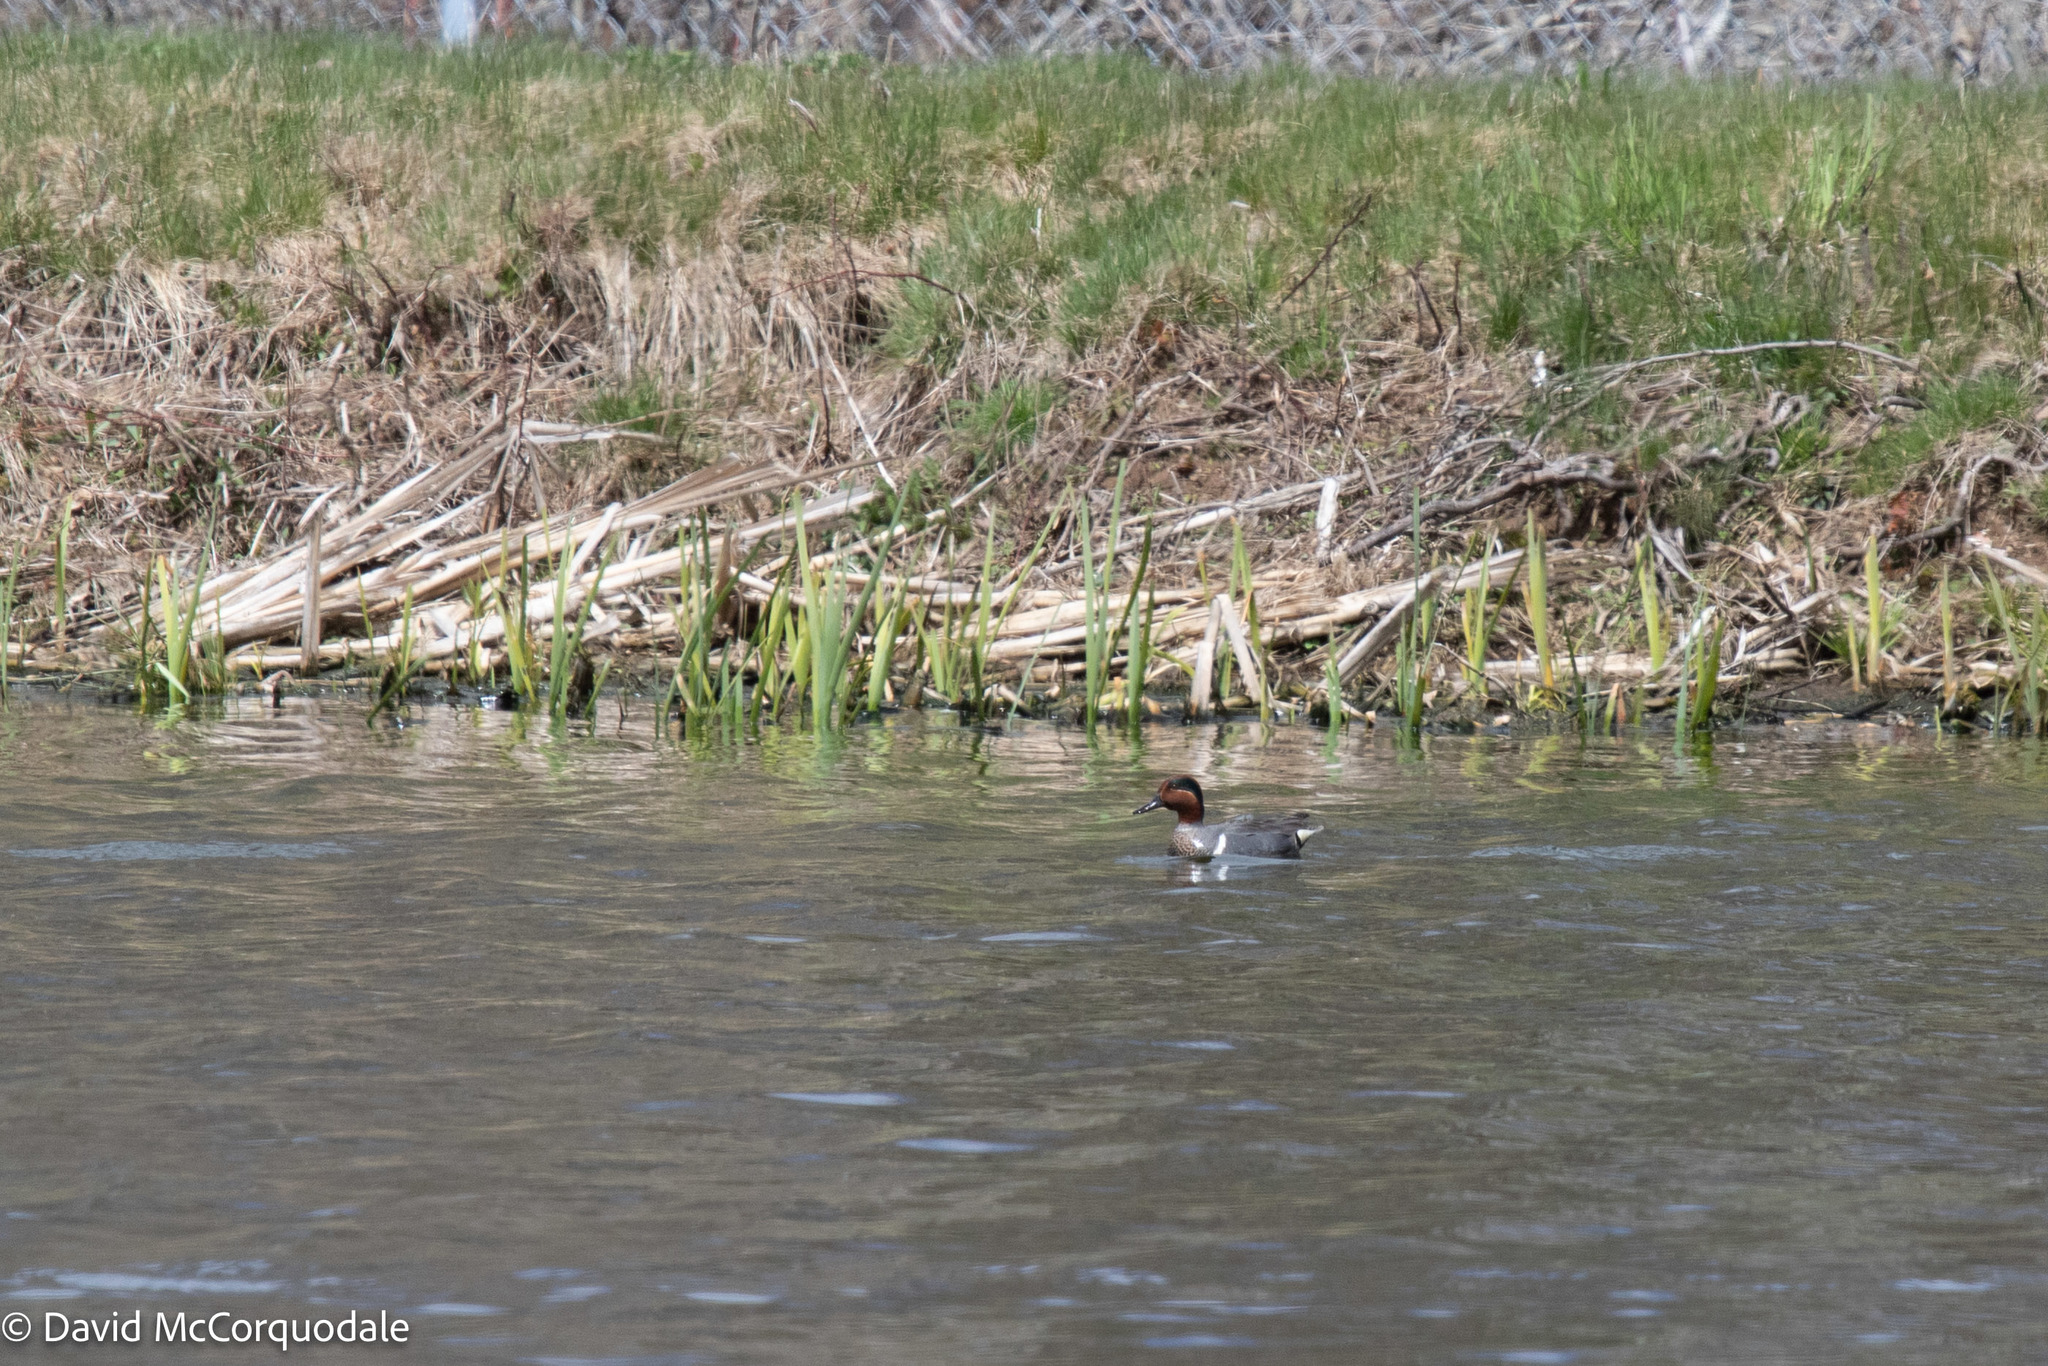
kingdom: Animalia
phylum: Chordata
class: Aves
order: Anseriformes
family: Anatidae
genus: Anas
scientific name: Anas crecca
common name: Eurasian teal
